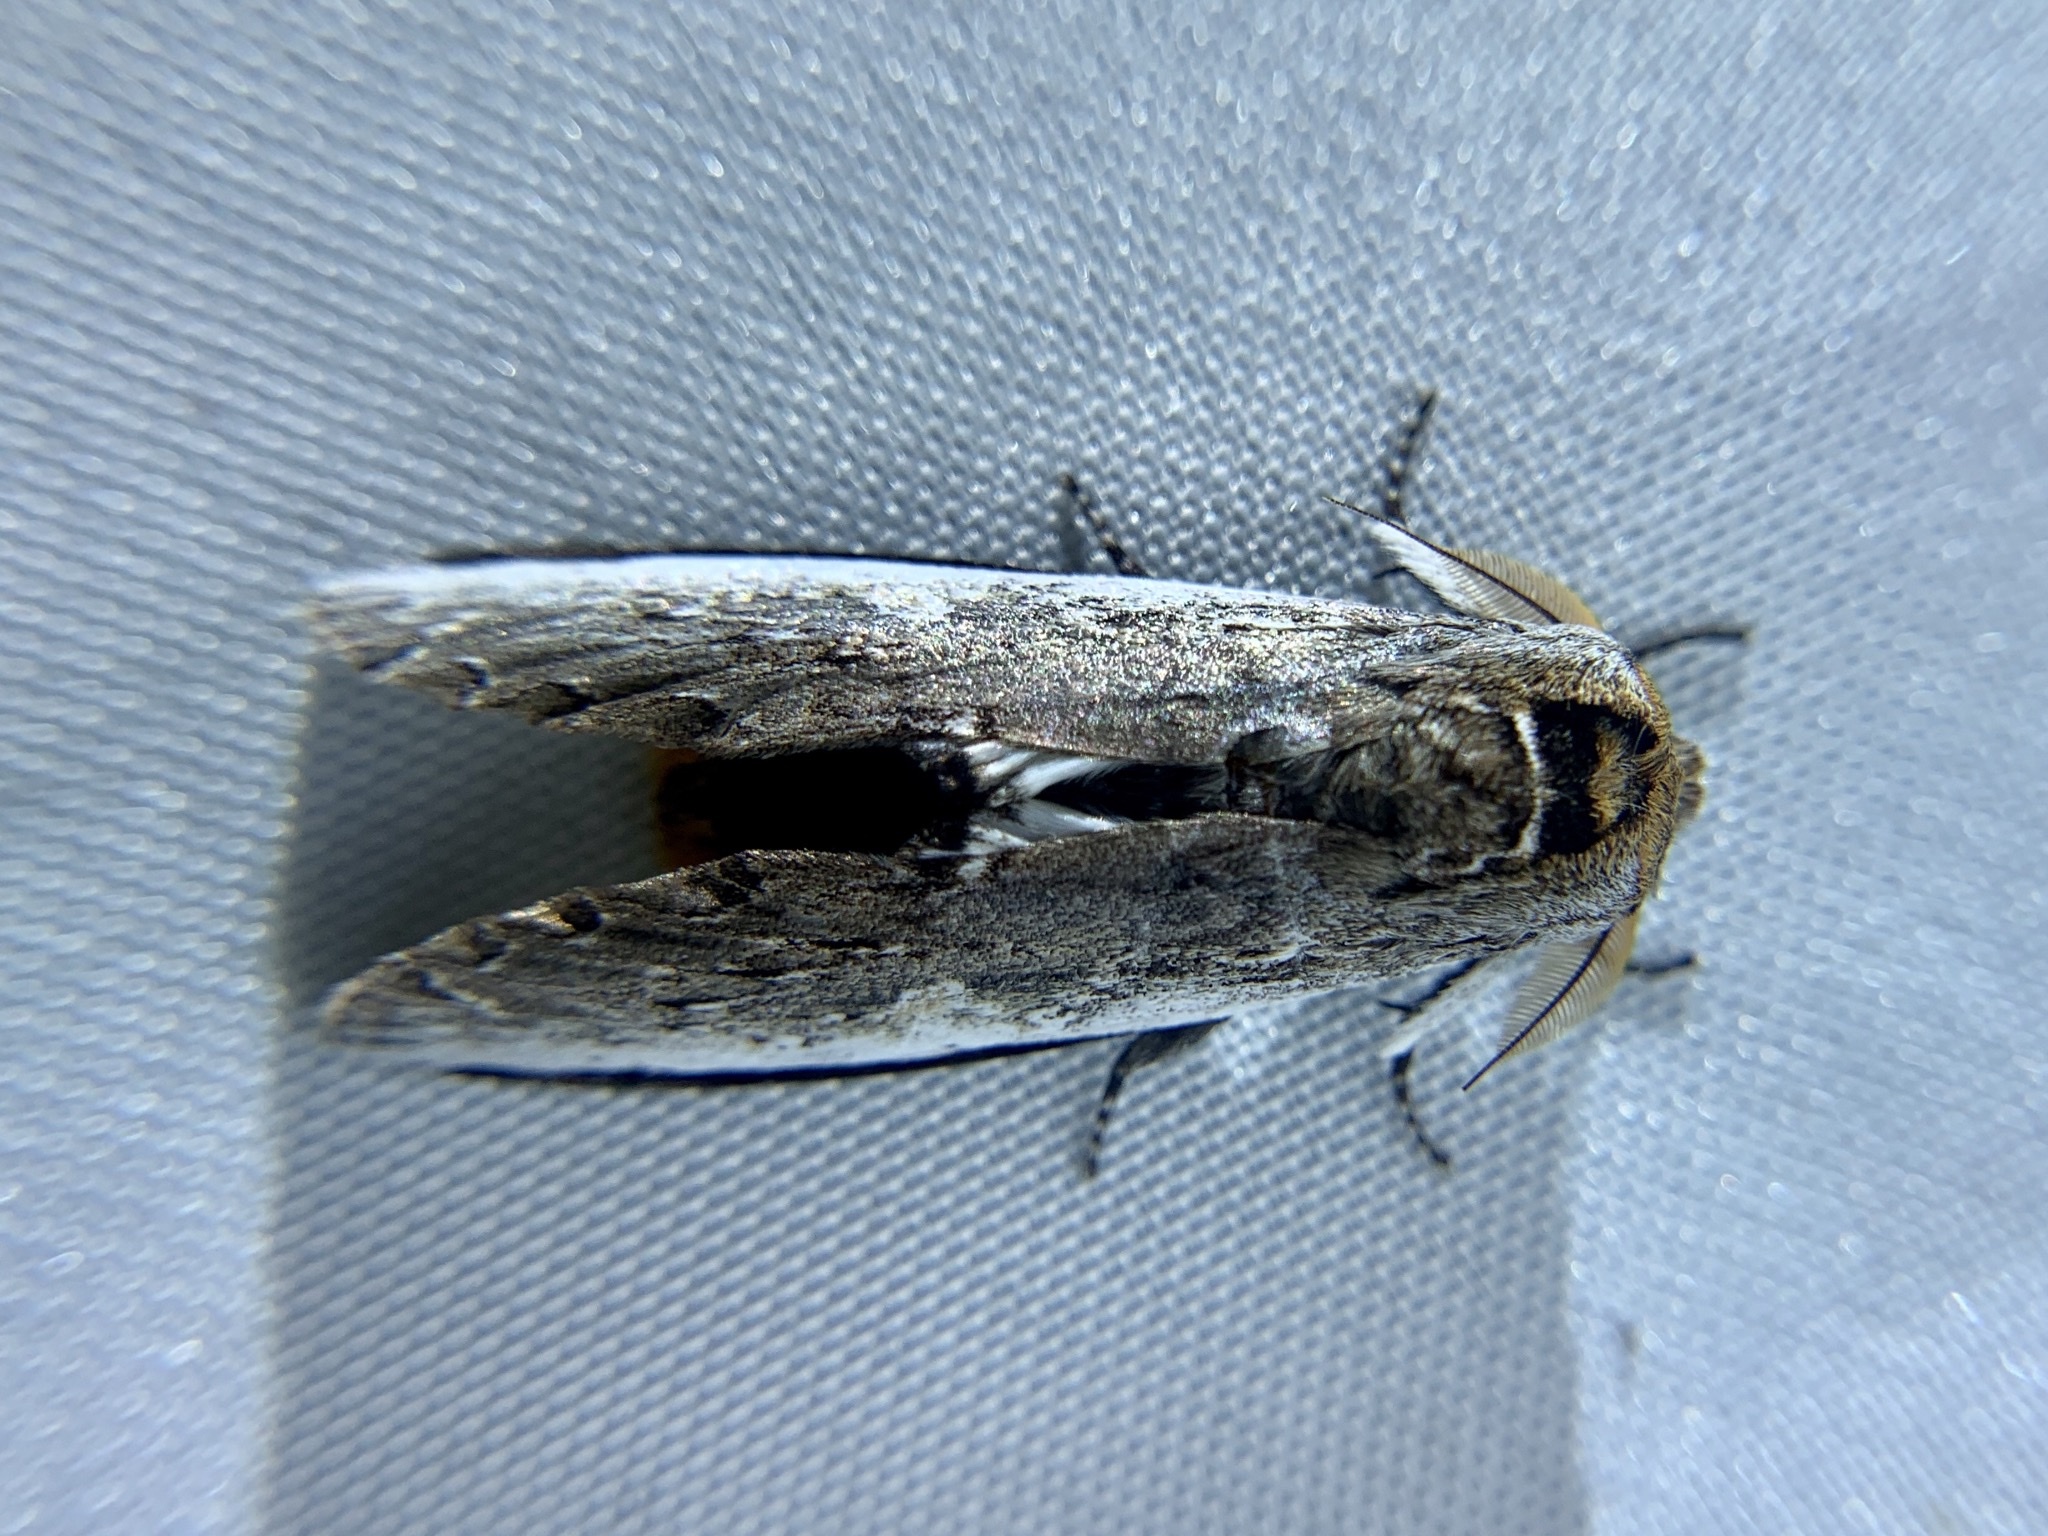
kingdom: Animalia
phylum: Arthropoda
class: Insecta
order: Lepidoptera
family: Notodontidae
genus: Lirimiris
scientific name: Lirimiris auriflua
